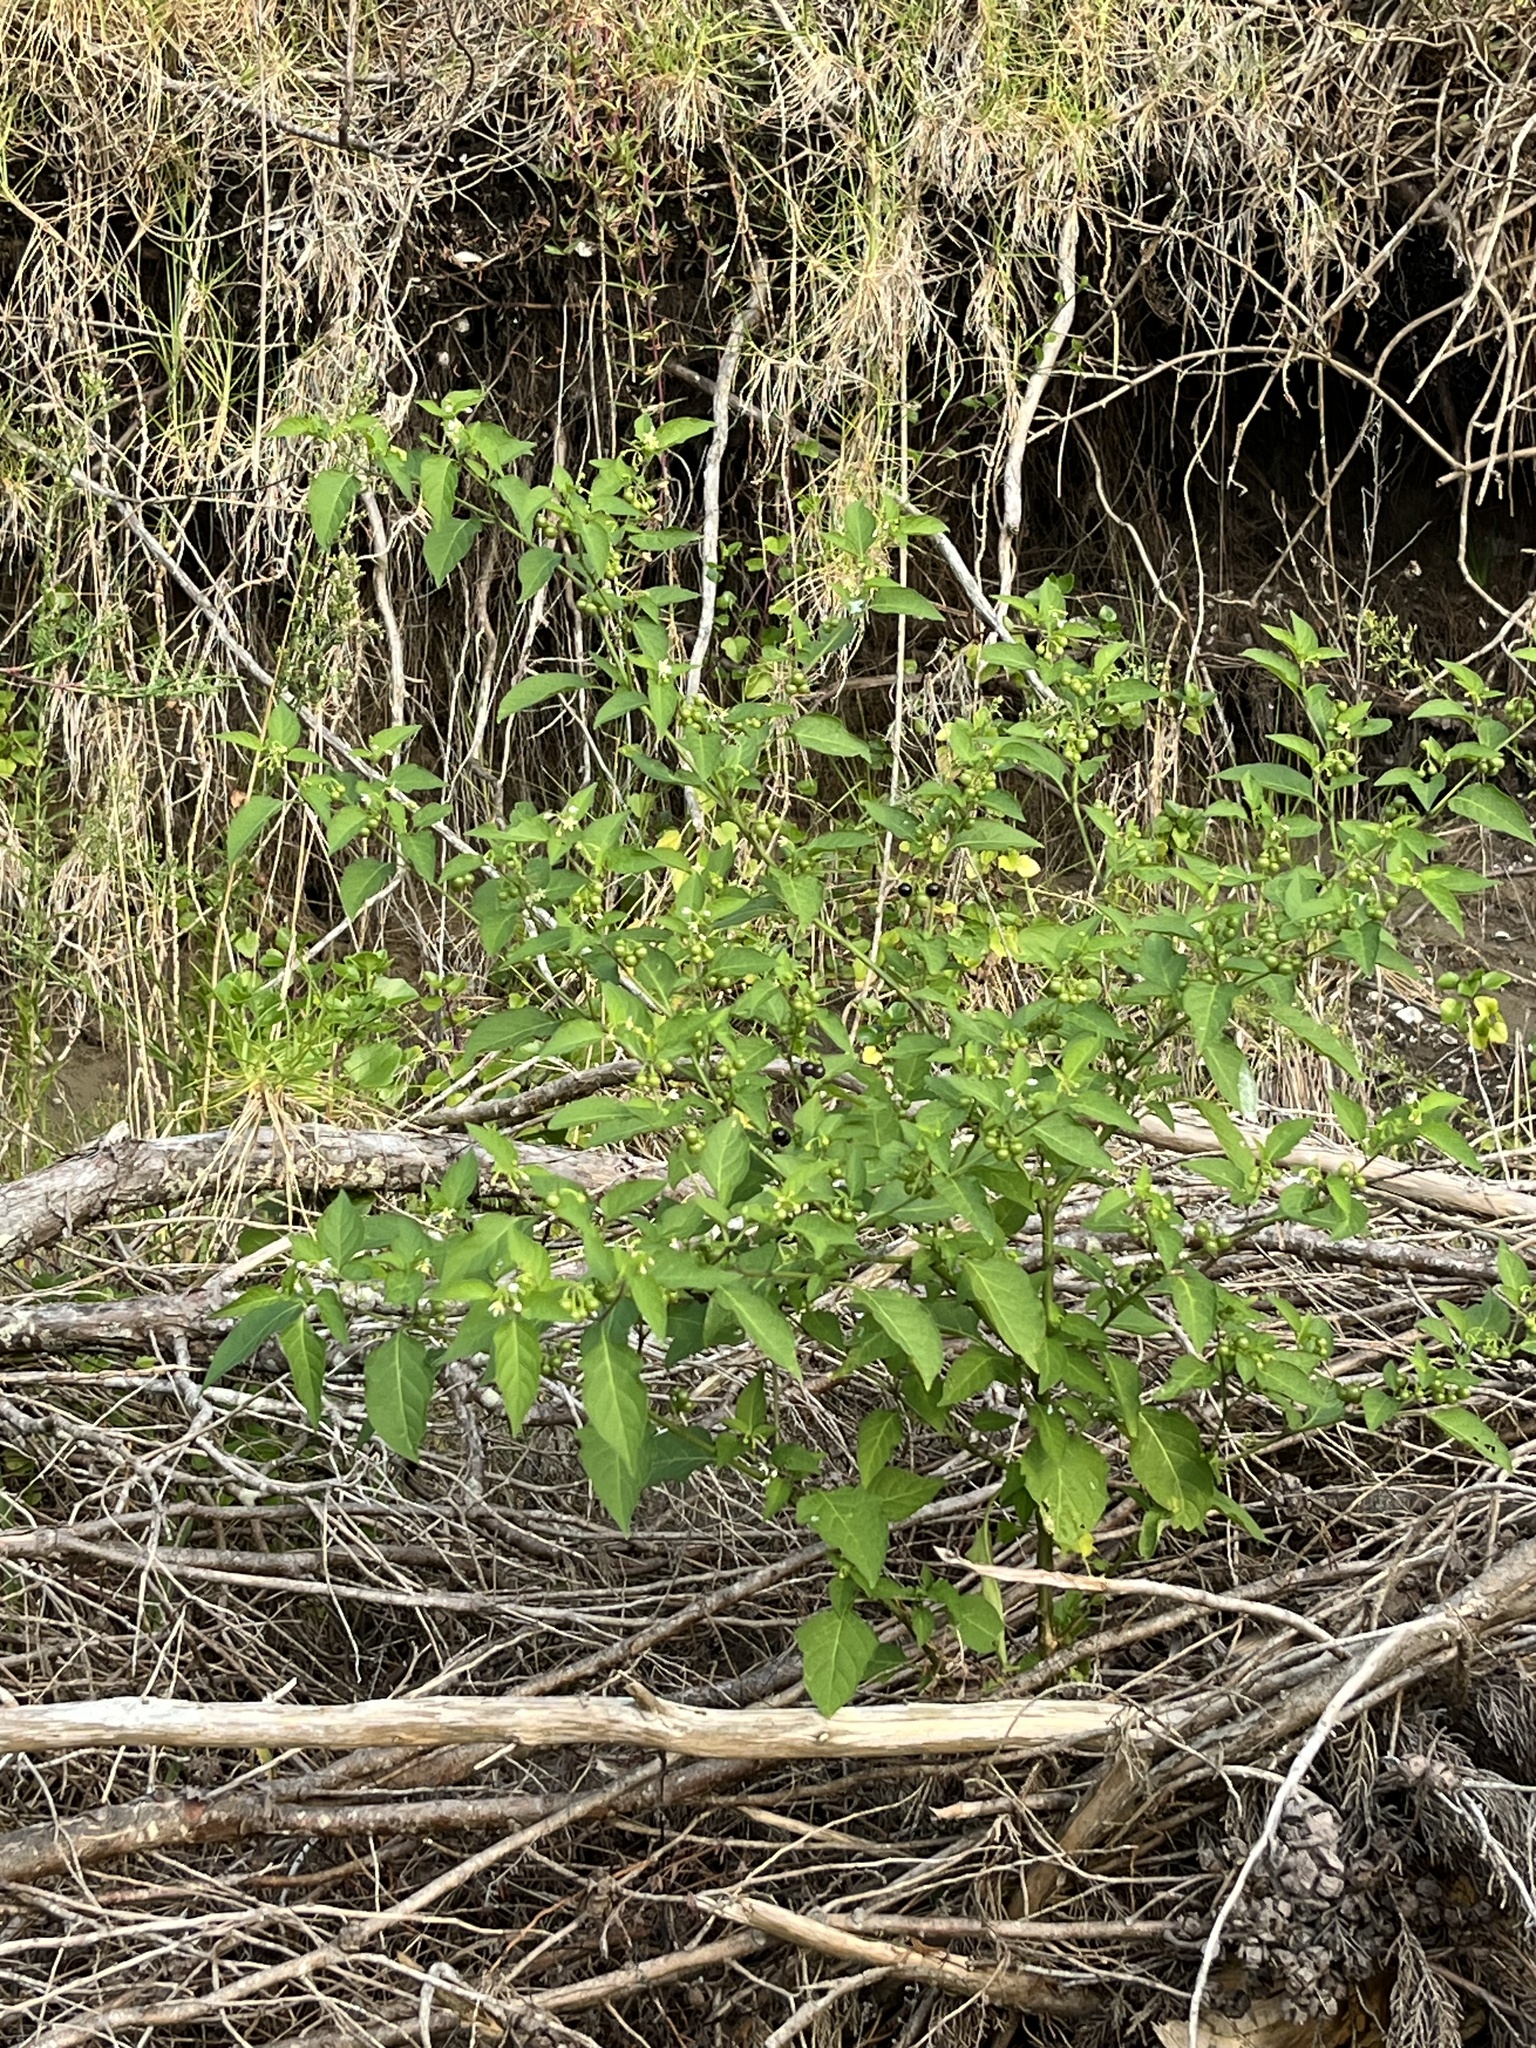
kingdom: Plantae
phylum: Tracheophyta
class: Magnoliopsida
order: Solanales
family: Solanaceae
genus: Solanum
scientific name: Solanum chenopodioides
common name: Tall nightshade
